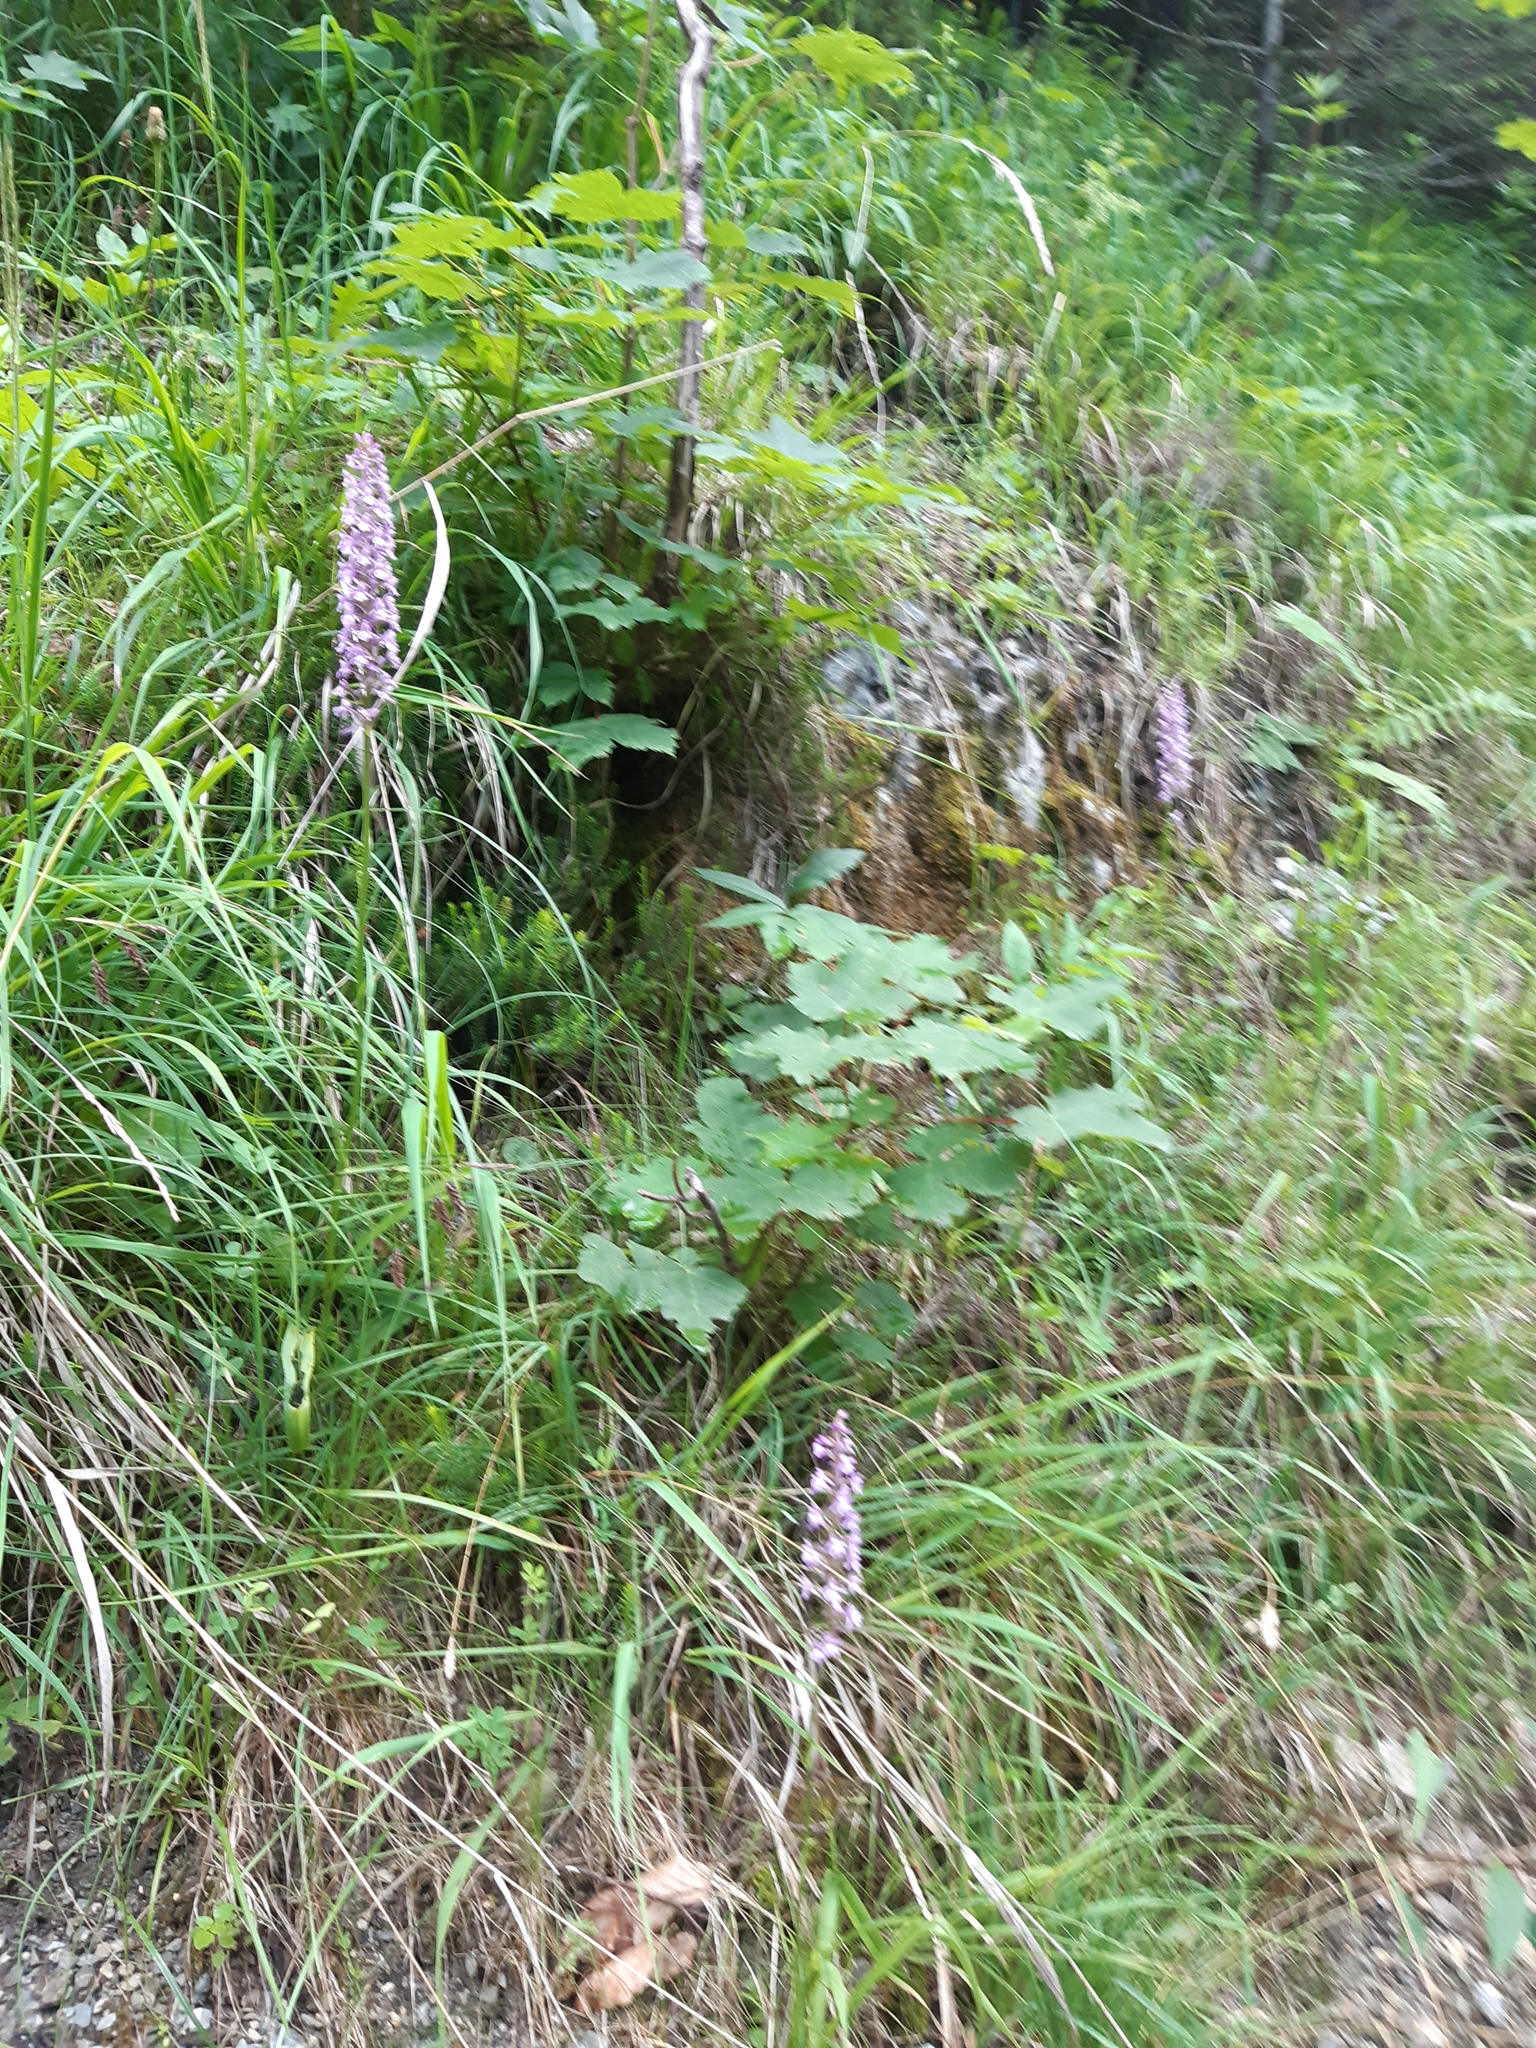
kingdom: Plantae
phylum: Tracheophyta
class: Liliopsida
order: Asparagales
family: Orchidaceae
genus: Gymnadenia
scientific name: Gymnadenia conopsea
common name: Fragrant orchid
